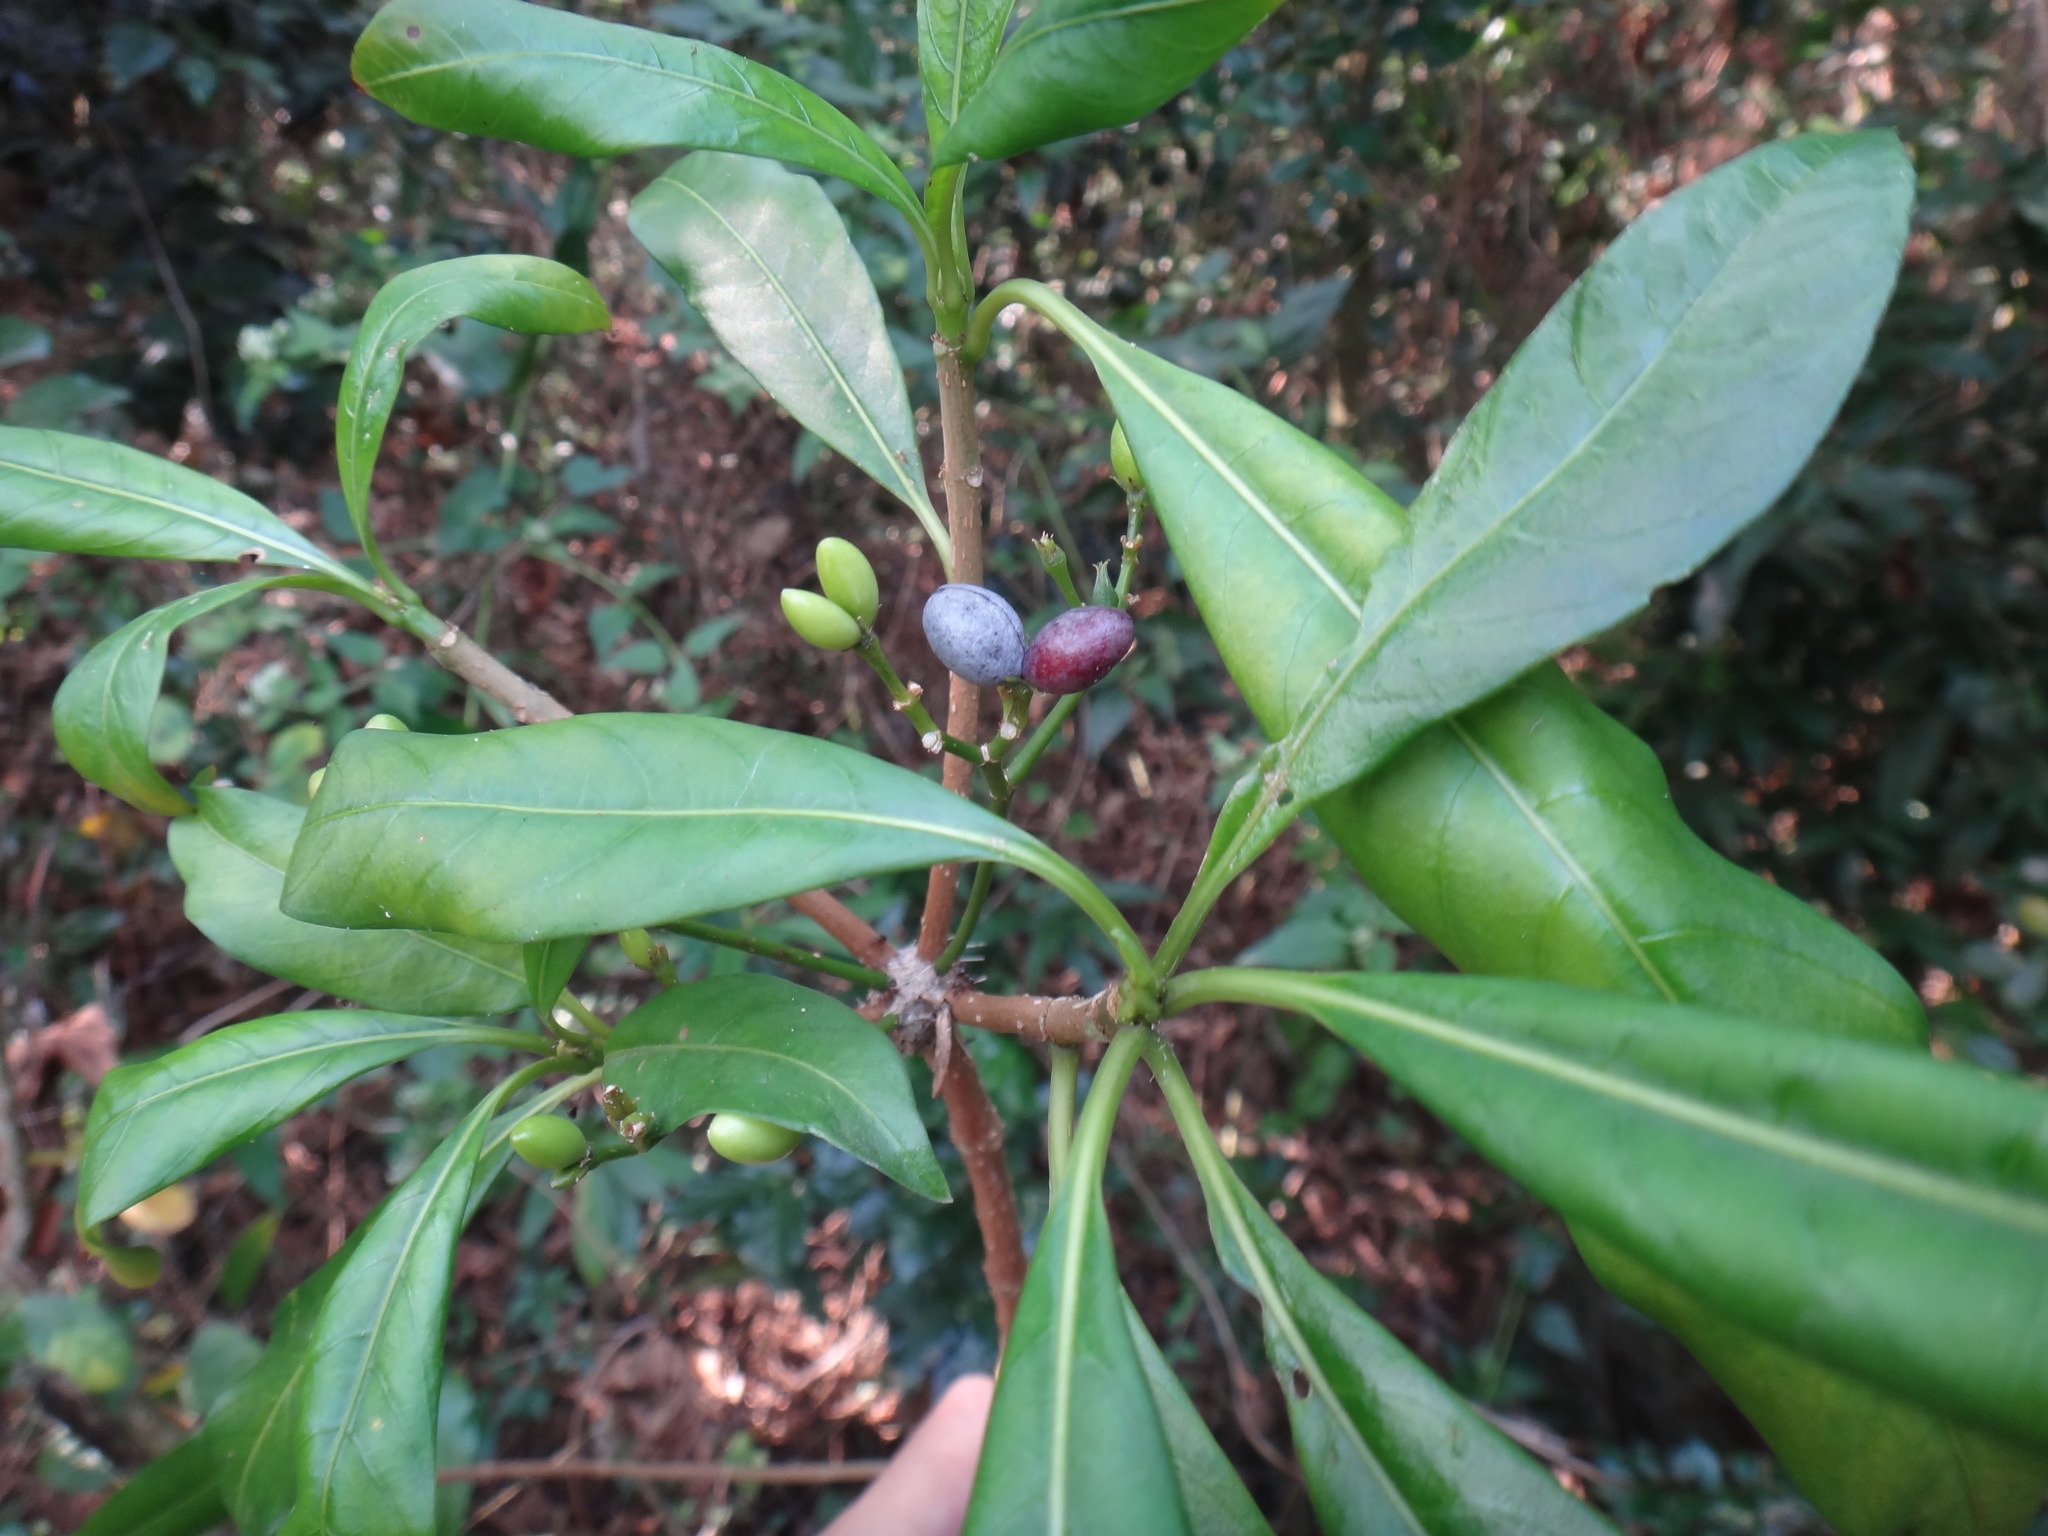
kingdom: Plantae
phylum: Tracheophyta
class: Magnoliopsida
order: Gentianales
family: Apocynaceae
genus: Rauvolfia
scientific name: Rauvolfia verticillata
